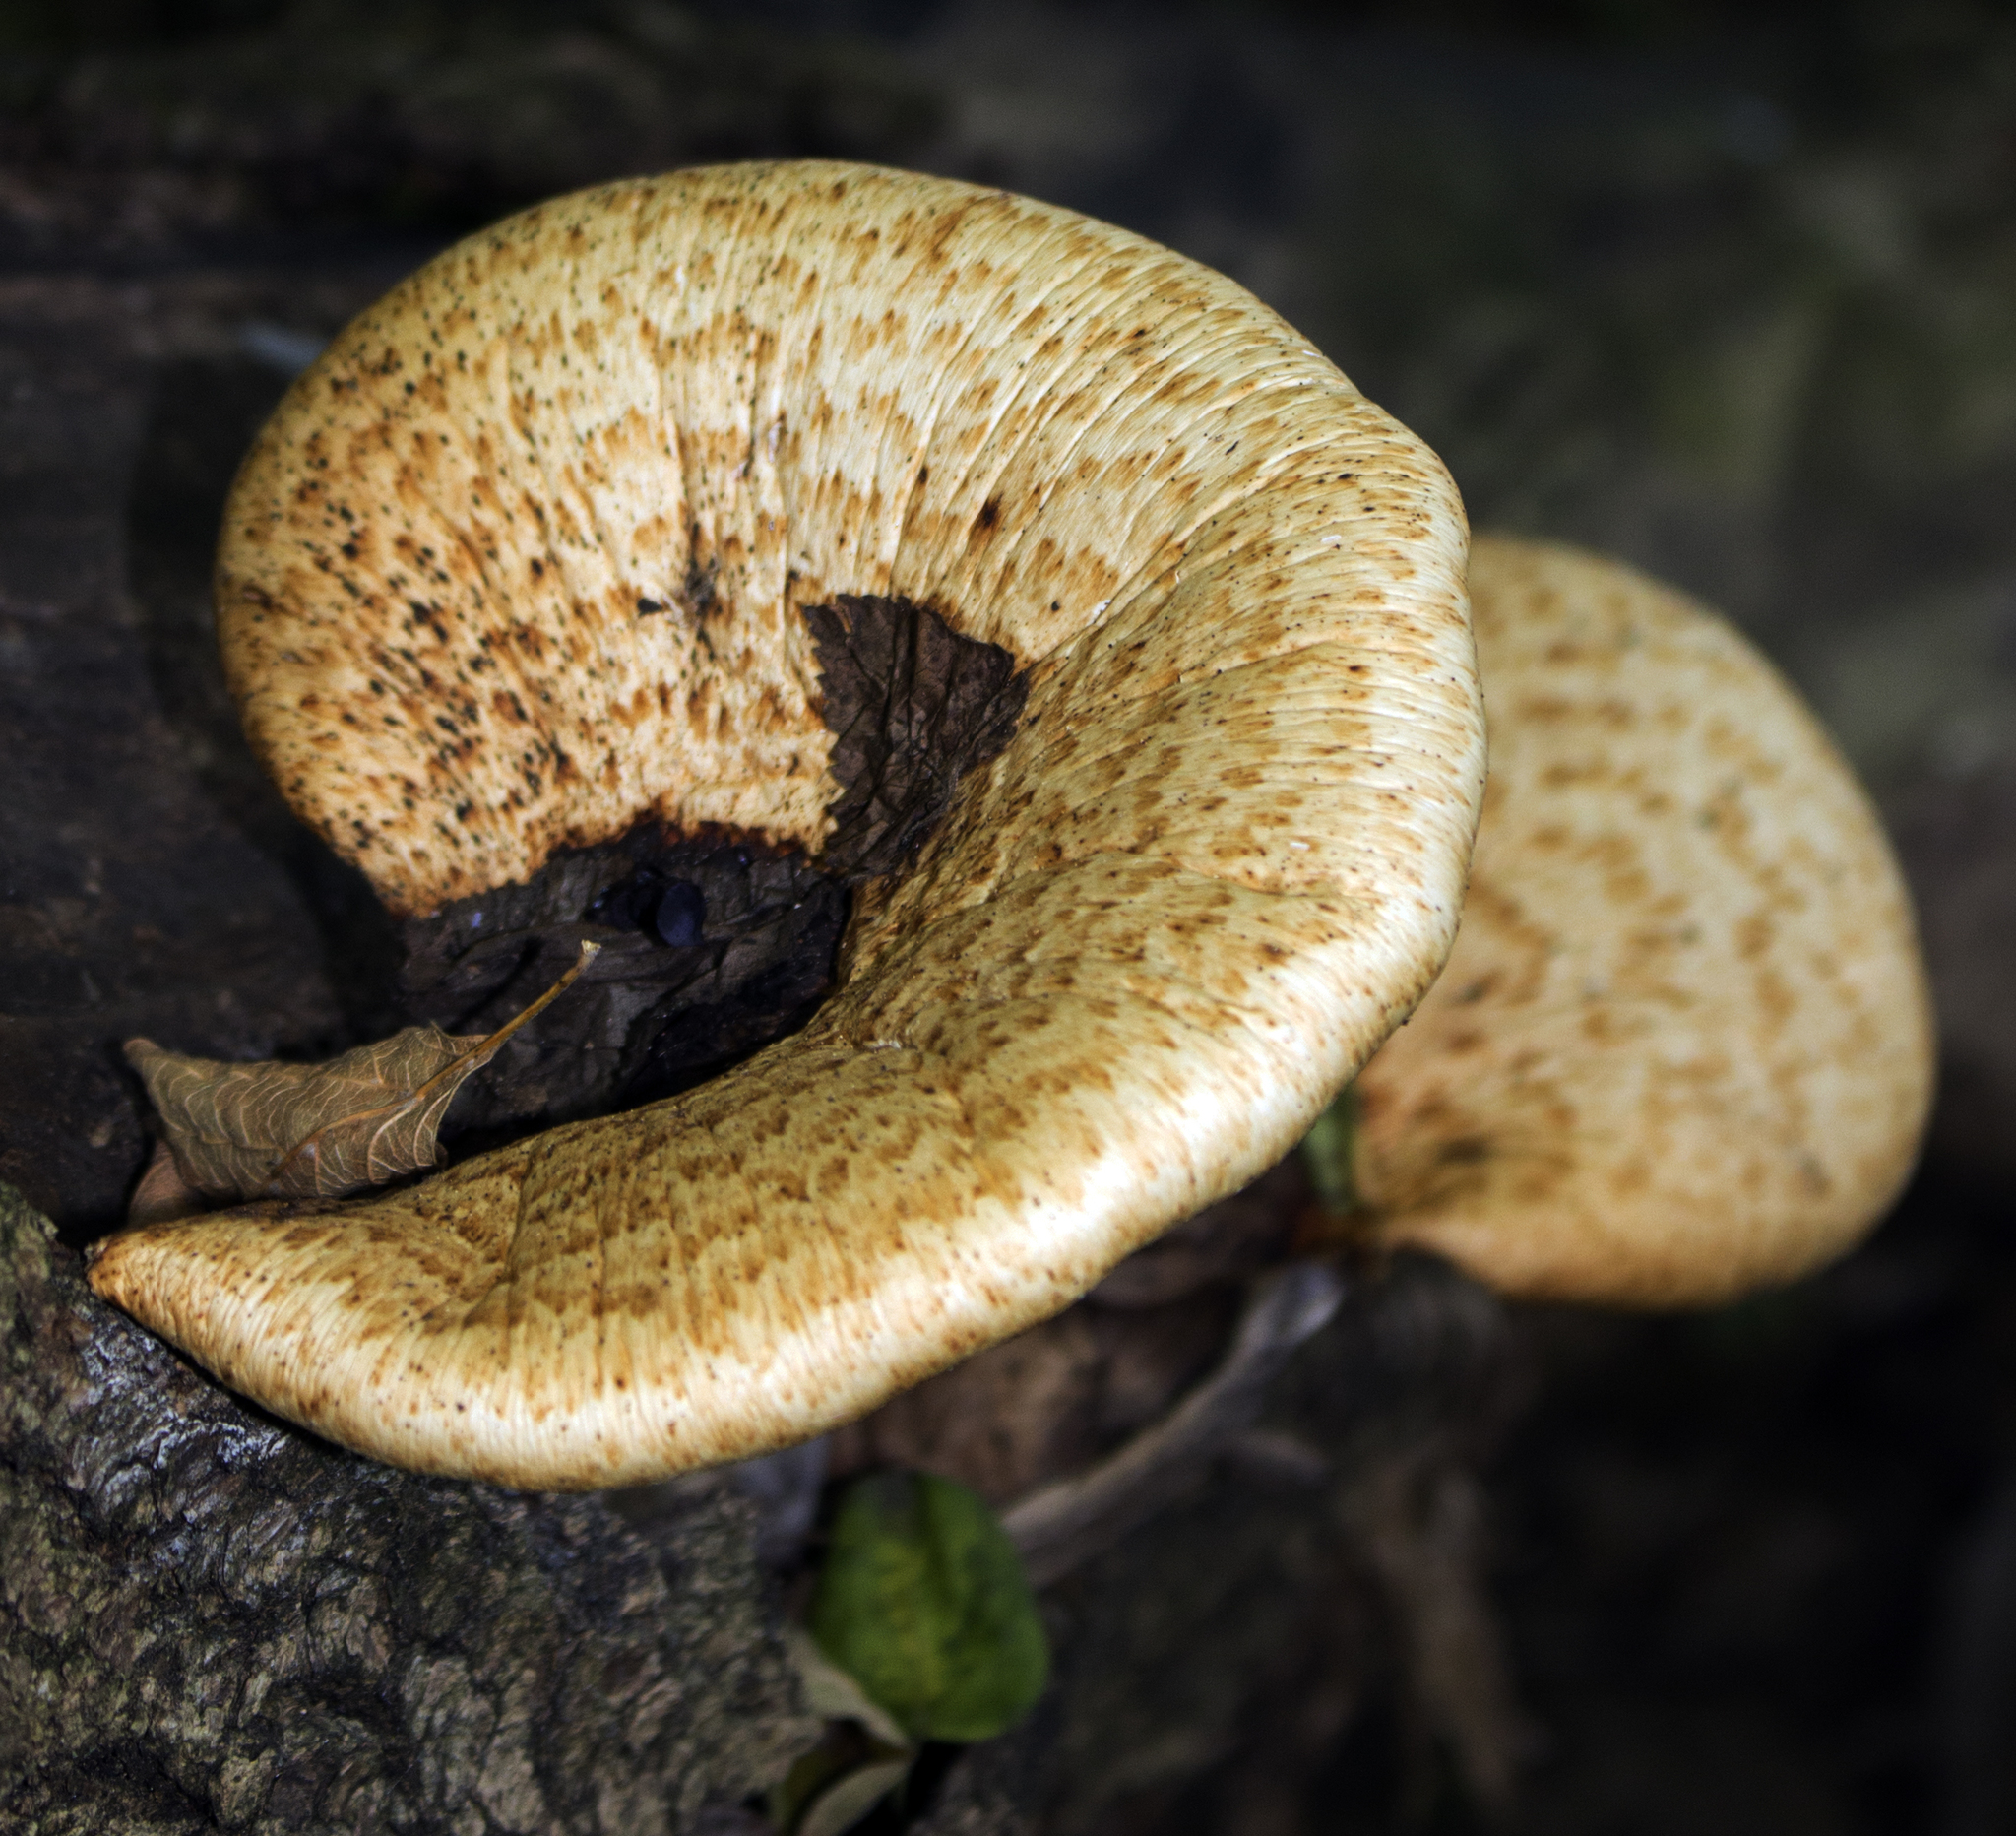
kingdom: Fungi
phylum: Basidiomycota
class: Agaricomycetes
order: Polyporales
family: Polyporaceae
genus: Cerioporus
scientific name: Cerioporus squamosus
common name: Dryad's saddle
